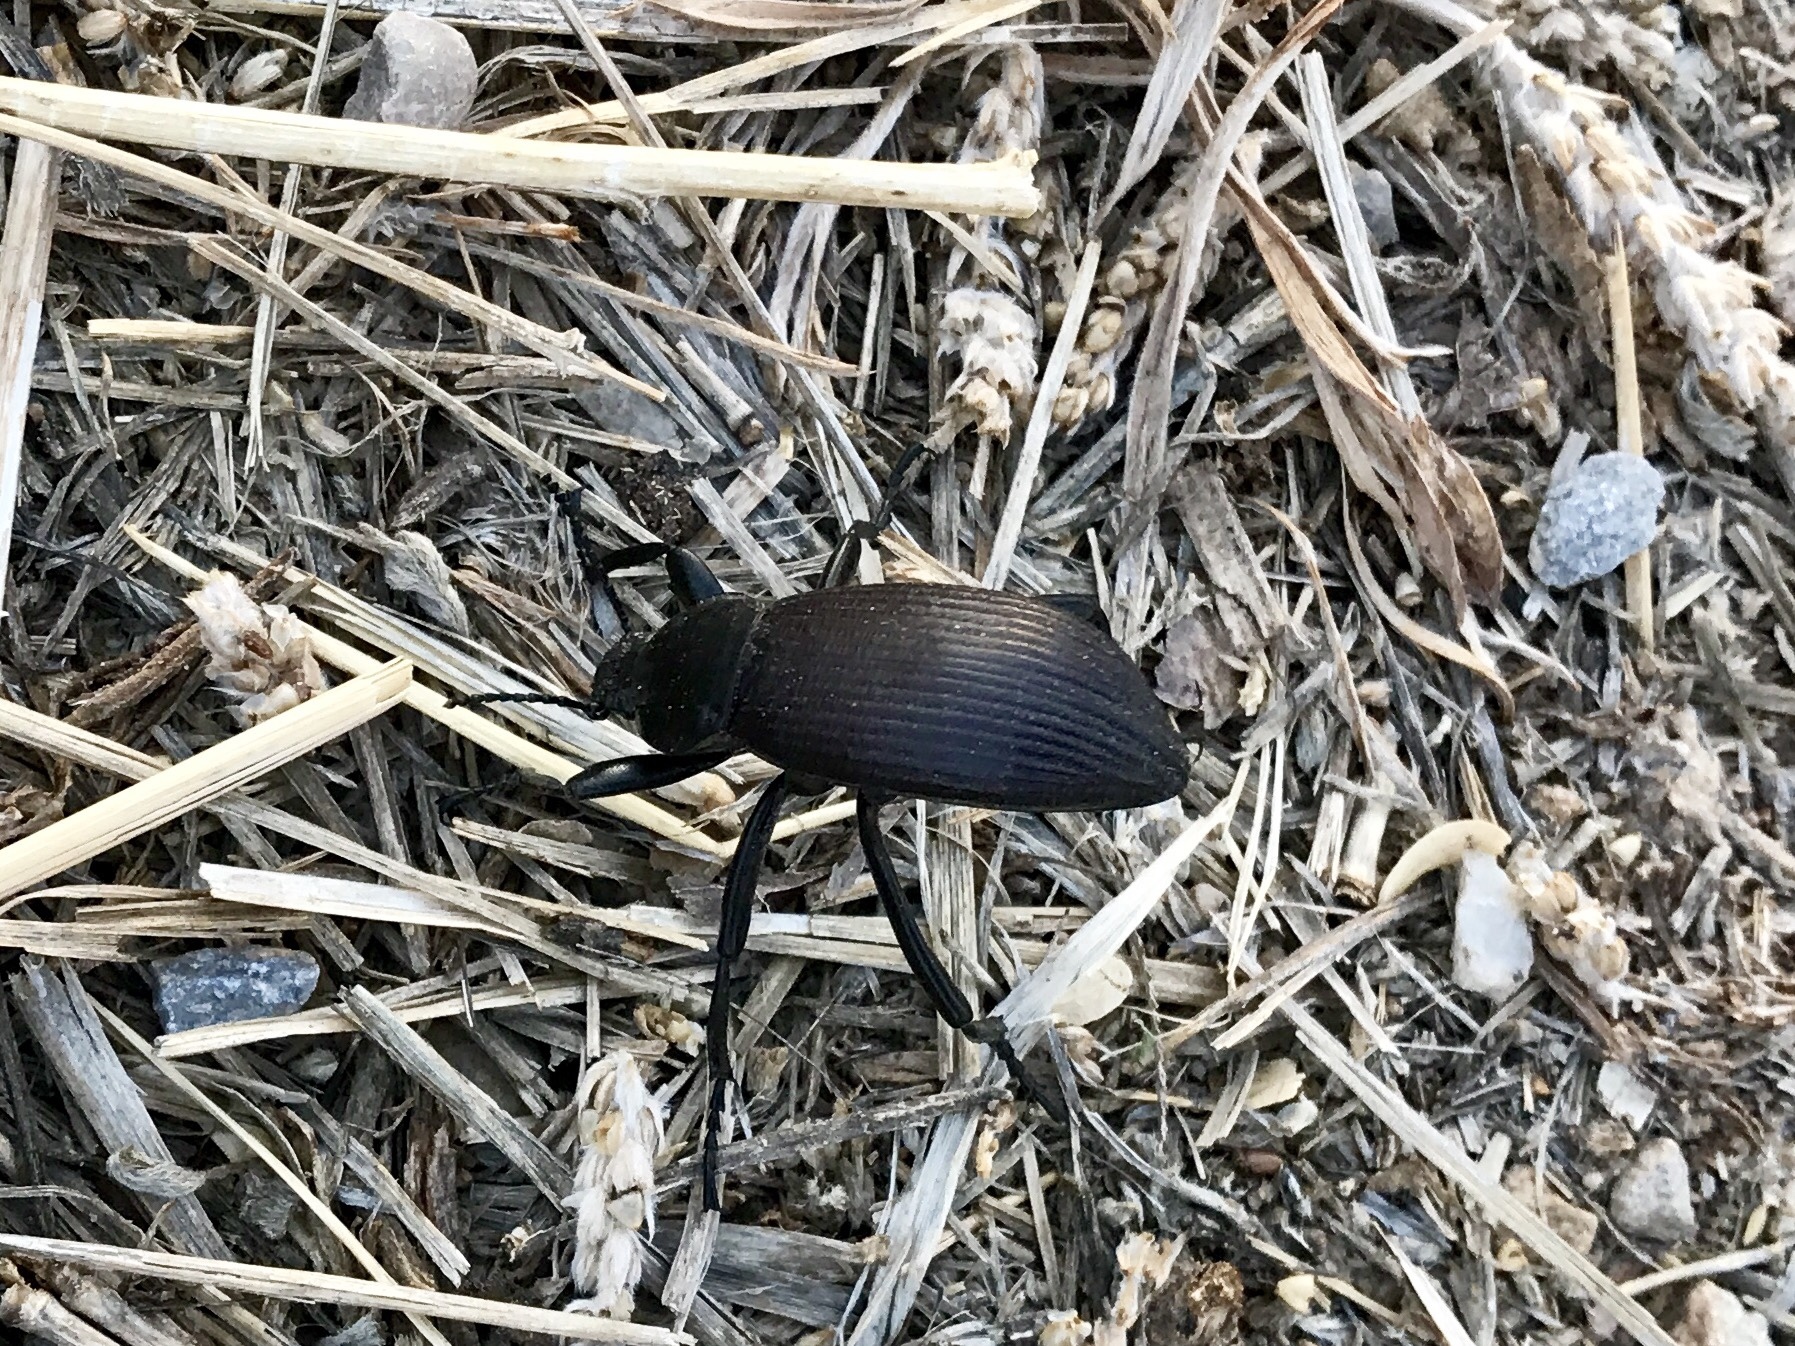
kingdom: Animalia
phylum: Arthropoda
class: Insecta
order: Coleoptera
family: Tenebrionidae
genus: Eleodes
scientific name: Eleodes obscura
